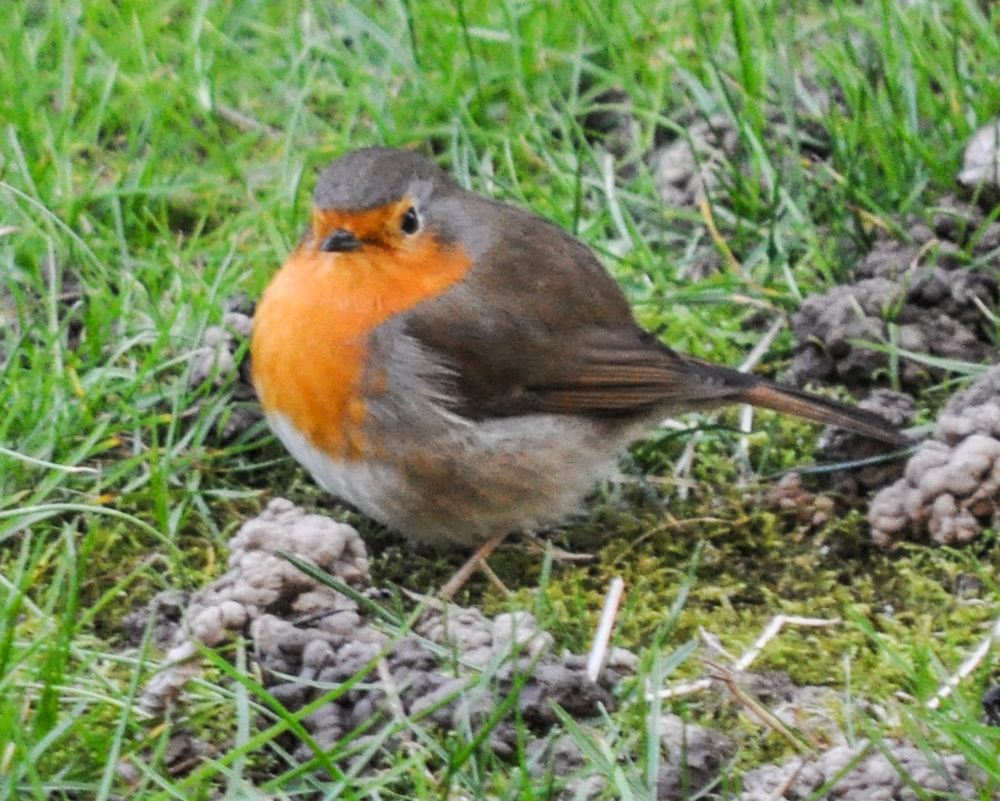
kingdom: Animalia
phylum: Chordata
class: Aves
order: Passeriformes
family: Muscicapidae
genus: Erithacus
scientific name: Erithacus rubecula
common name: European robin
